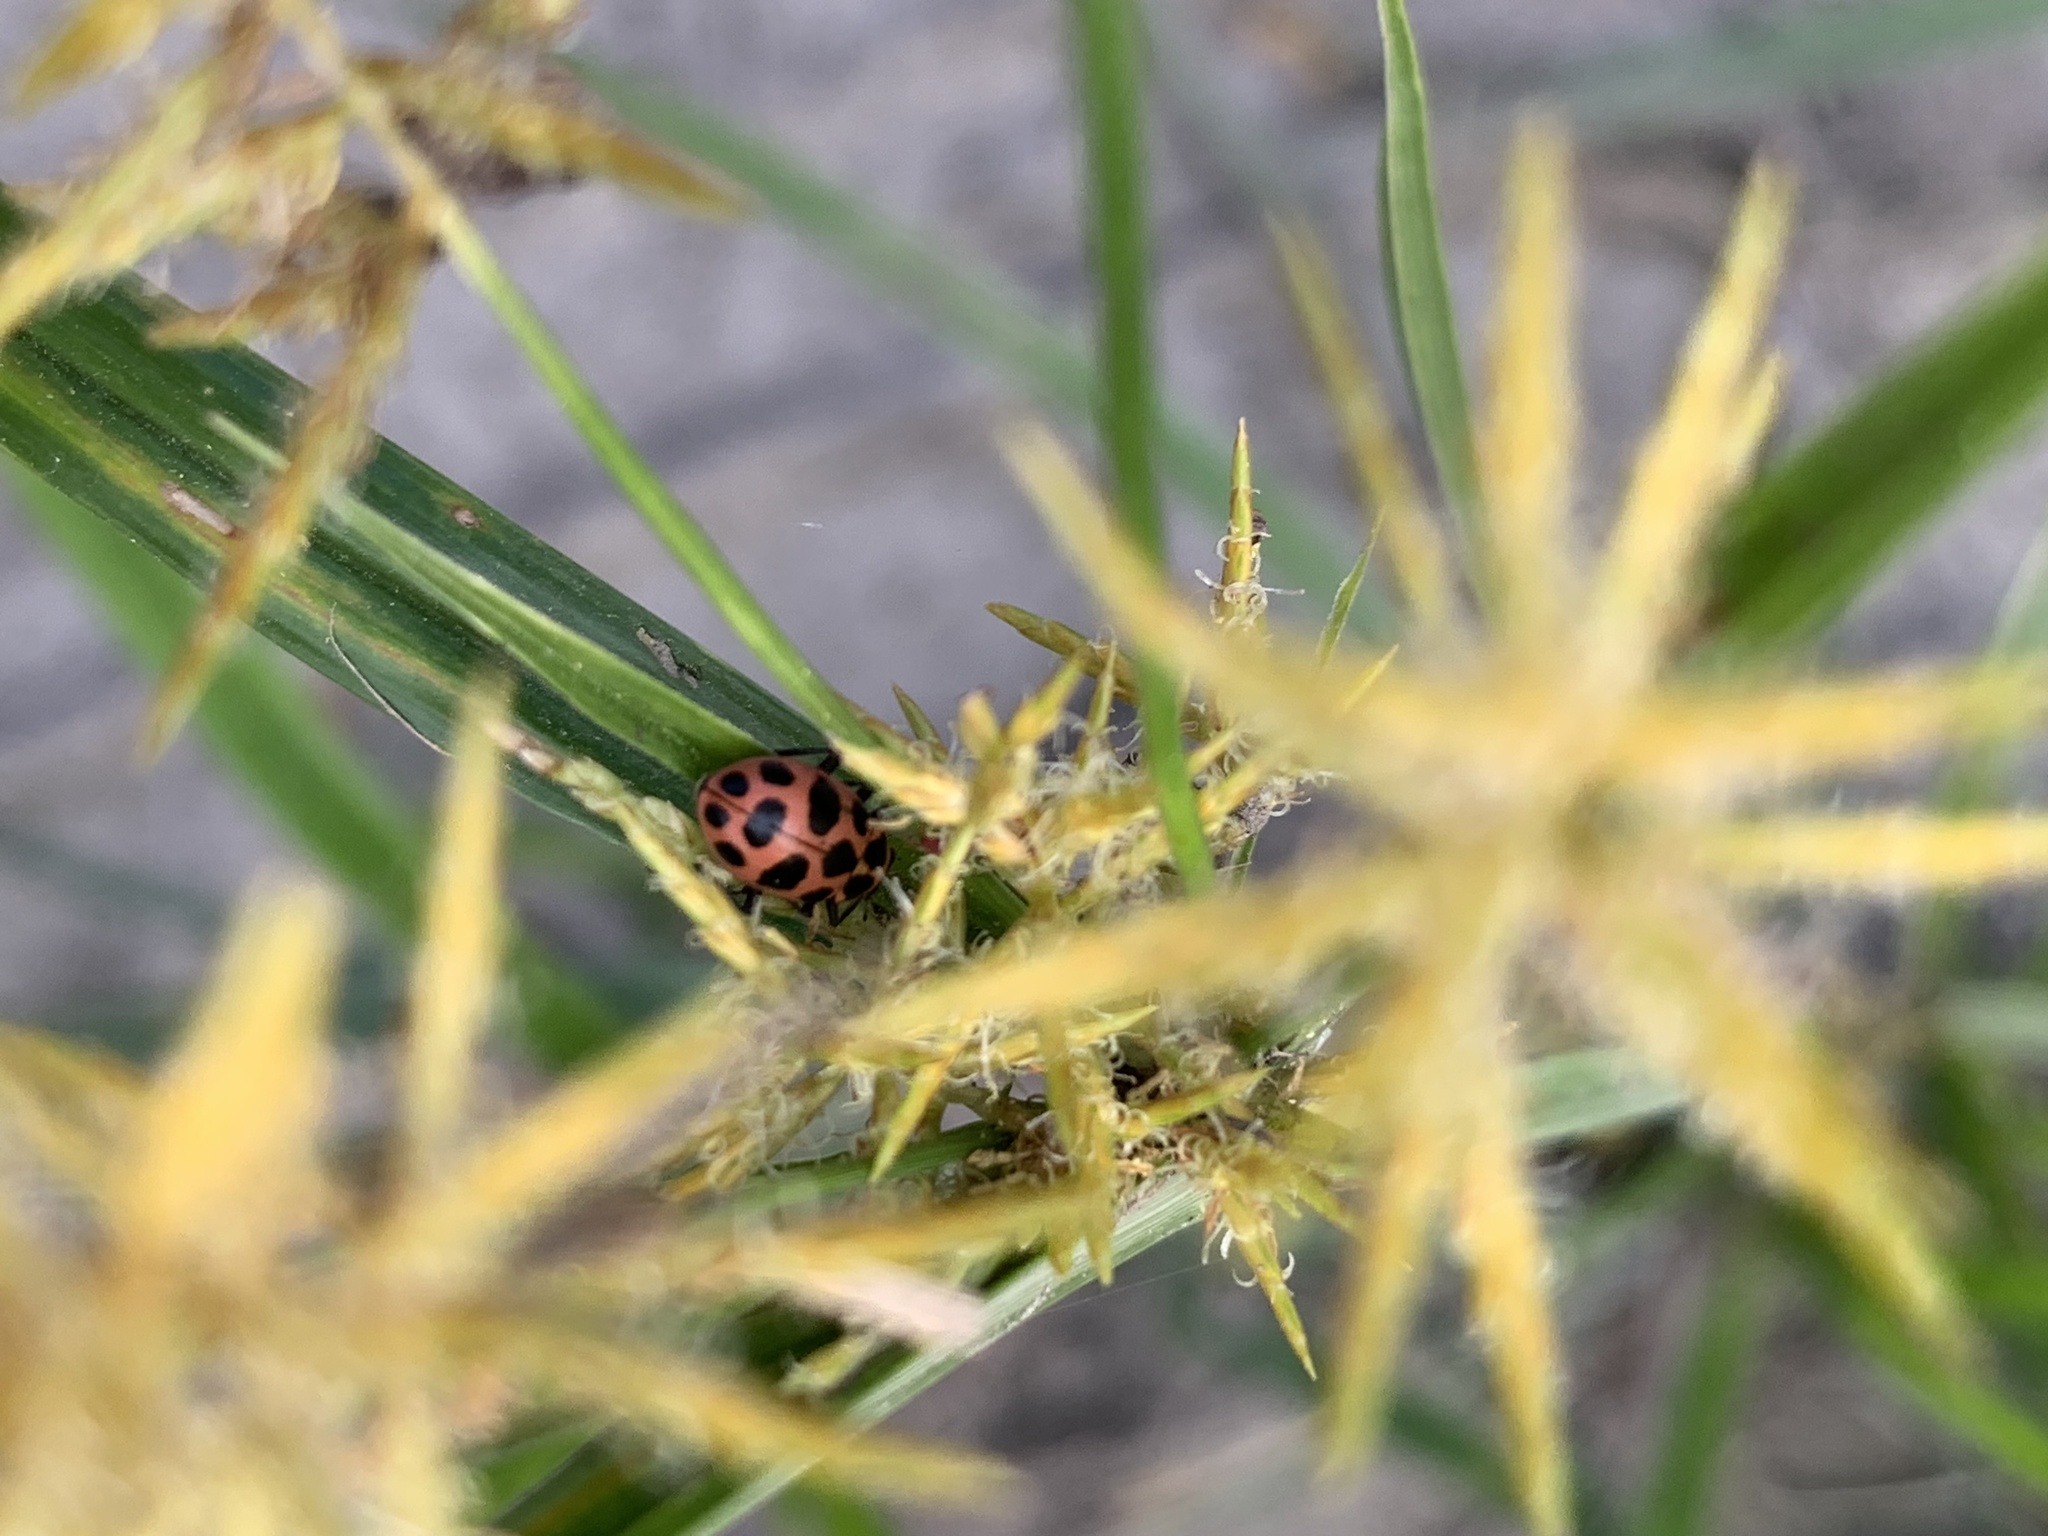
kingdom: Animalia
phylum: Arthropoda
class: Insecta
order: Coleoptera
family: Coccinellidae
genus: Coleomegilla
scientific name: Coleomegilla maculata
